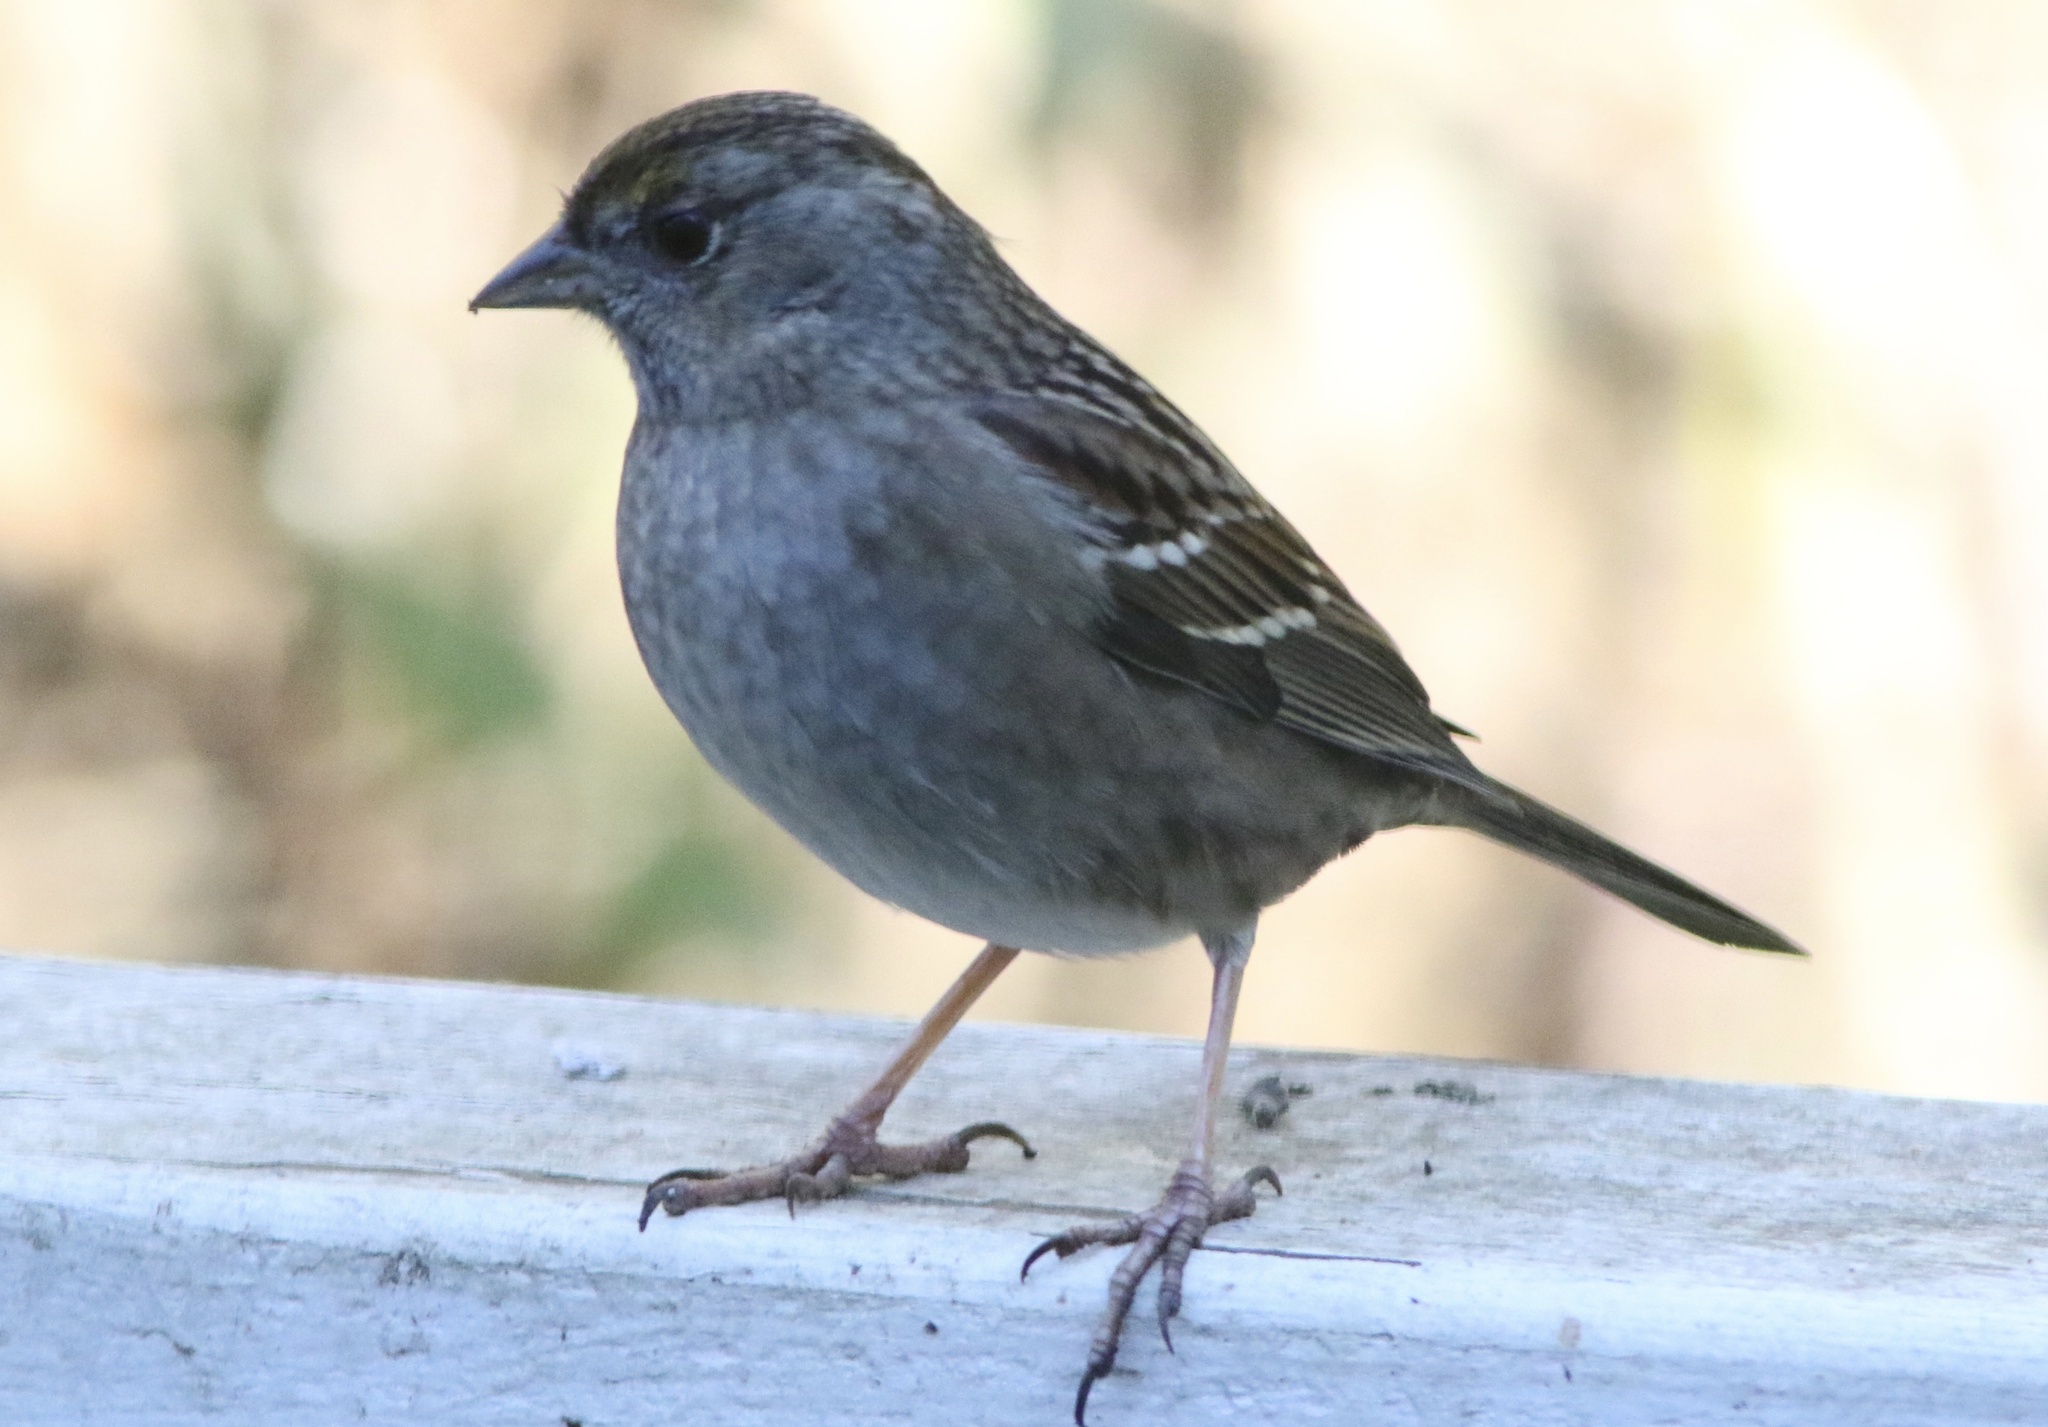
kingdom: Animalia
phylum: Chordata
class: Aves
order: Passeriformes
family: Passerellidae
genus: Zonotrichia
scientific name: Zonotrichia atricapilla
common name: Golden-crowned sparrow
